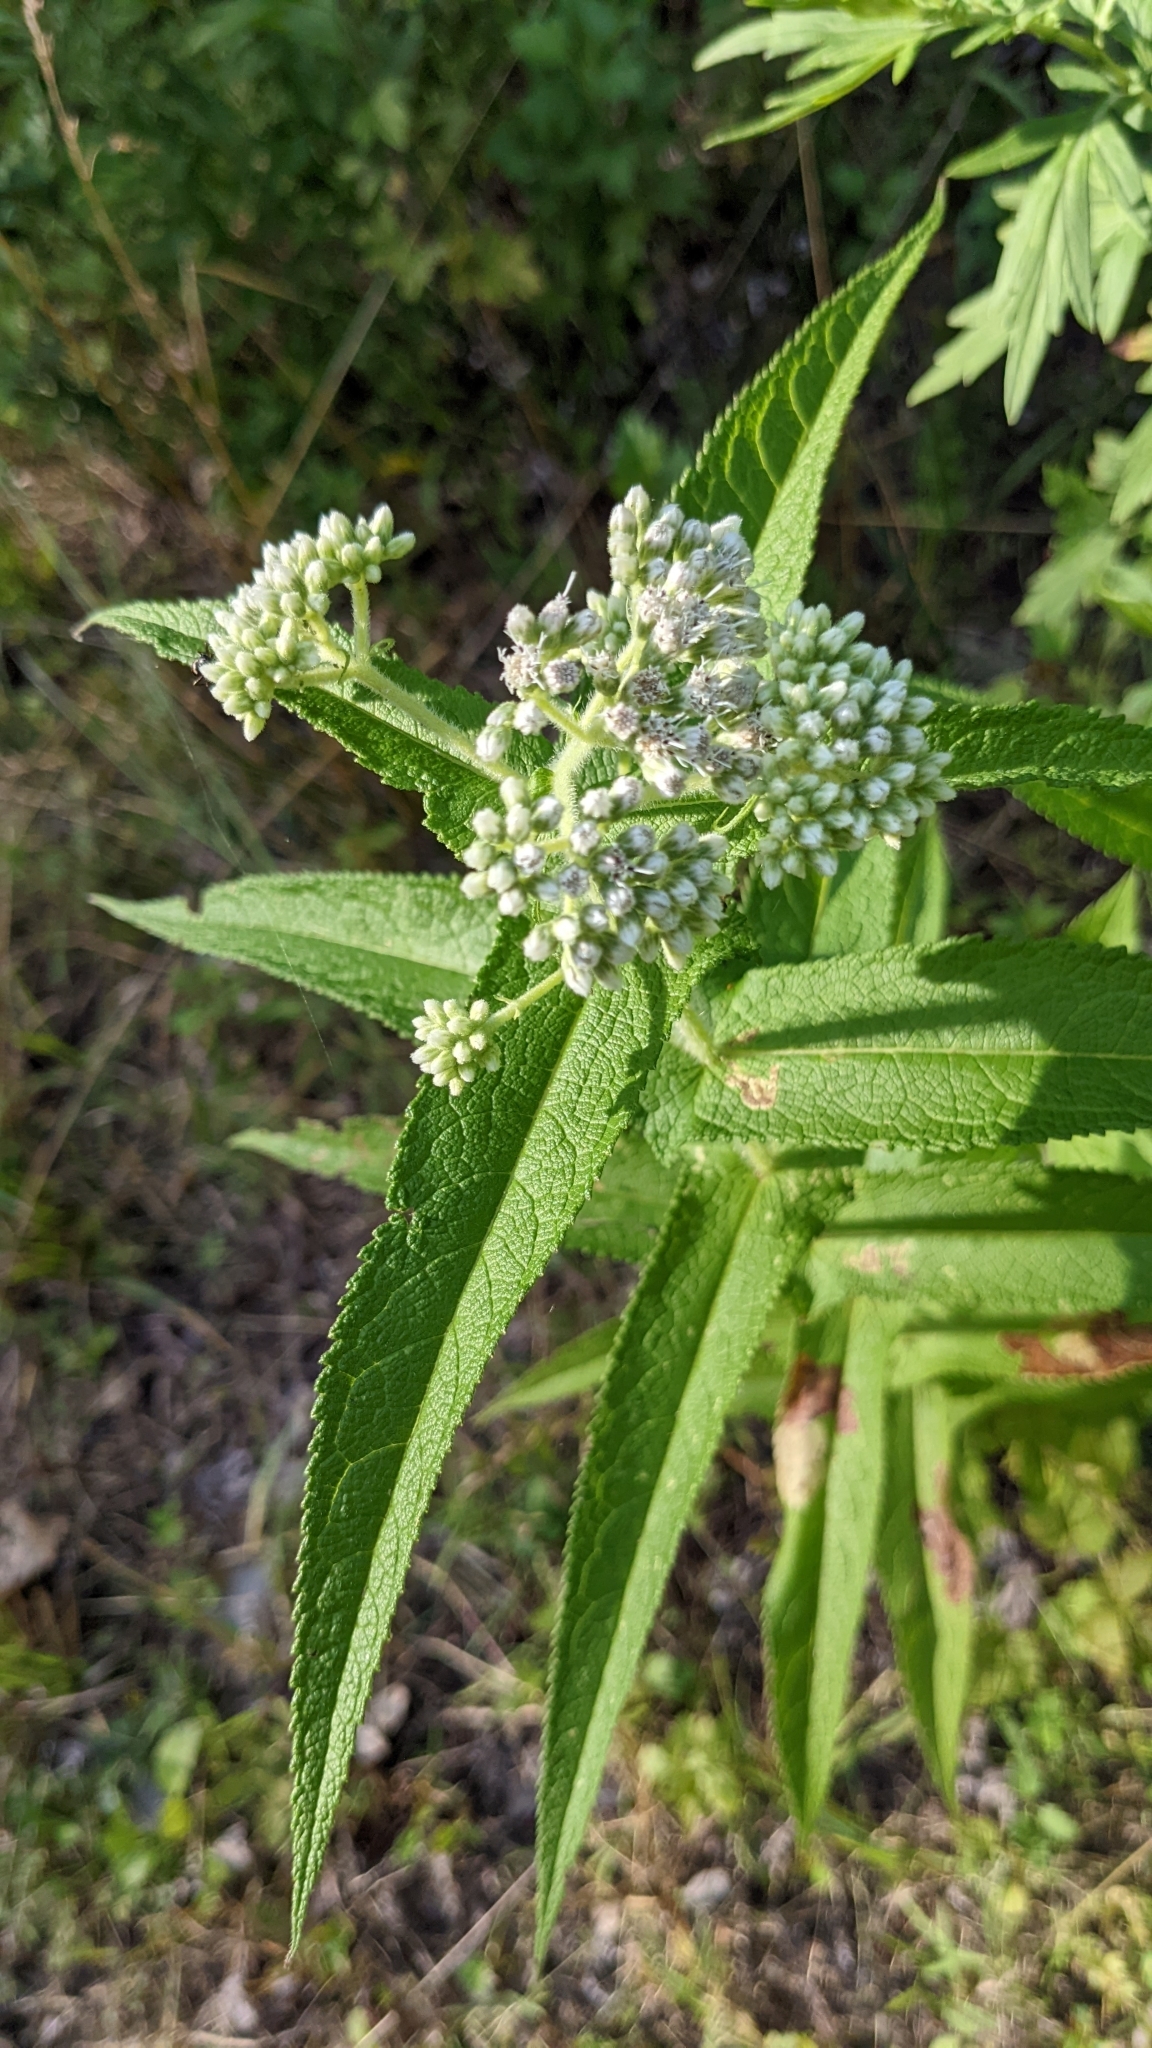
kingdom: Plantae
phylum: Tracheophyta
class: Magnoliopsida
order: Asterales
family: Asteraceae
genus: Eupatorium
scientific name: Eupatorium perfoliatum
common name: Boneset
